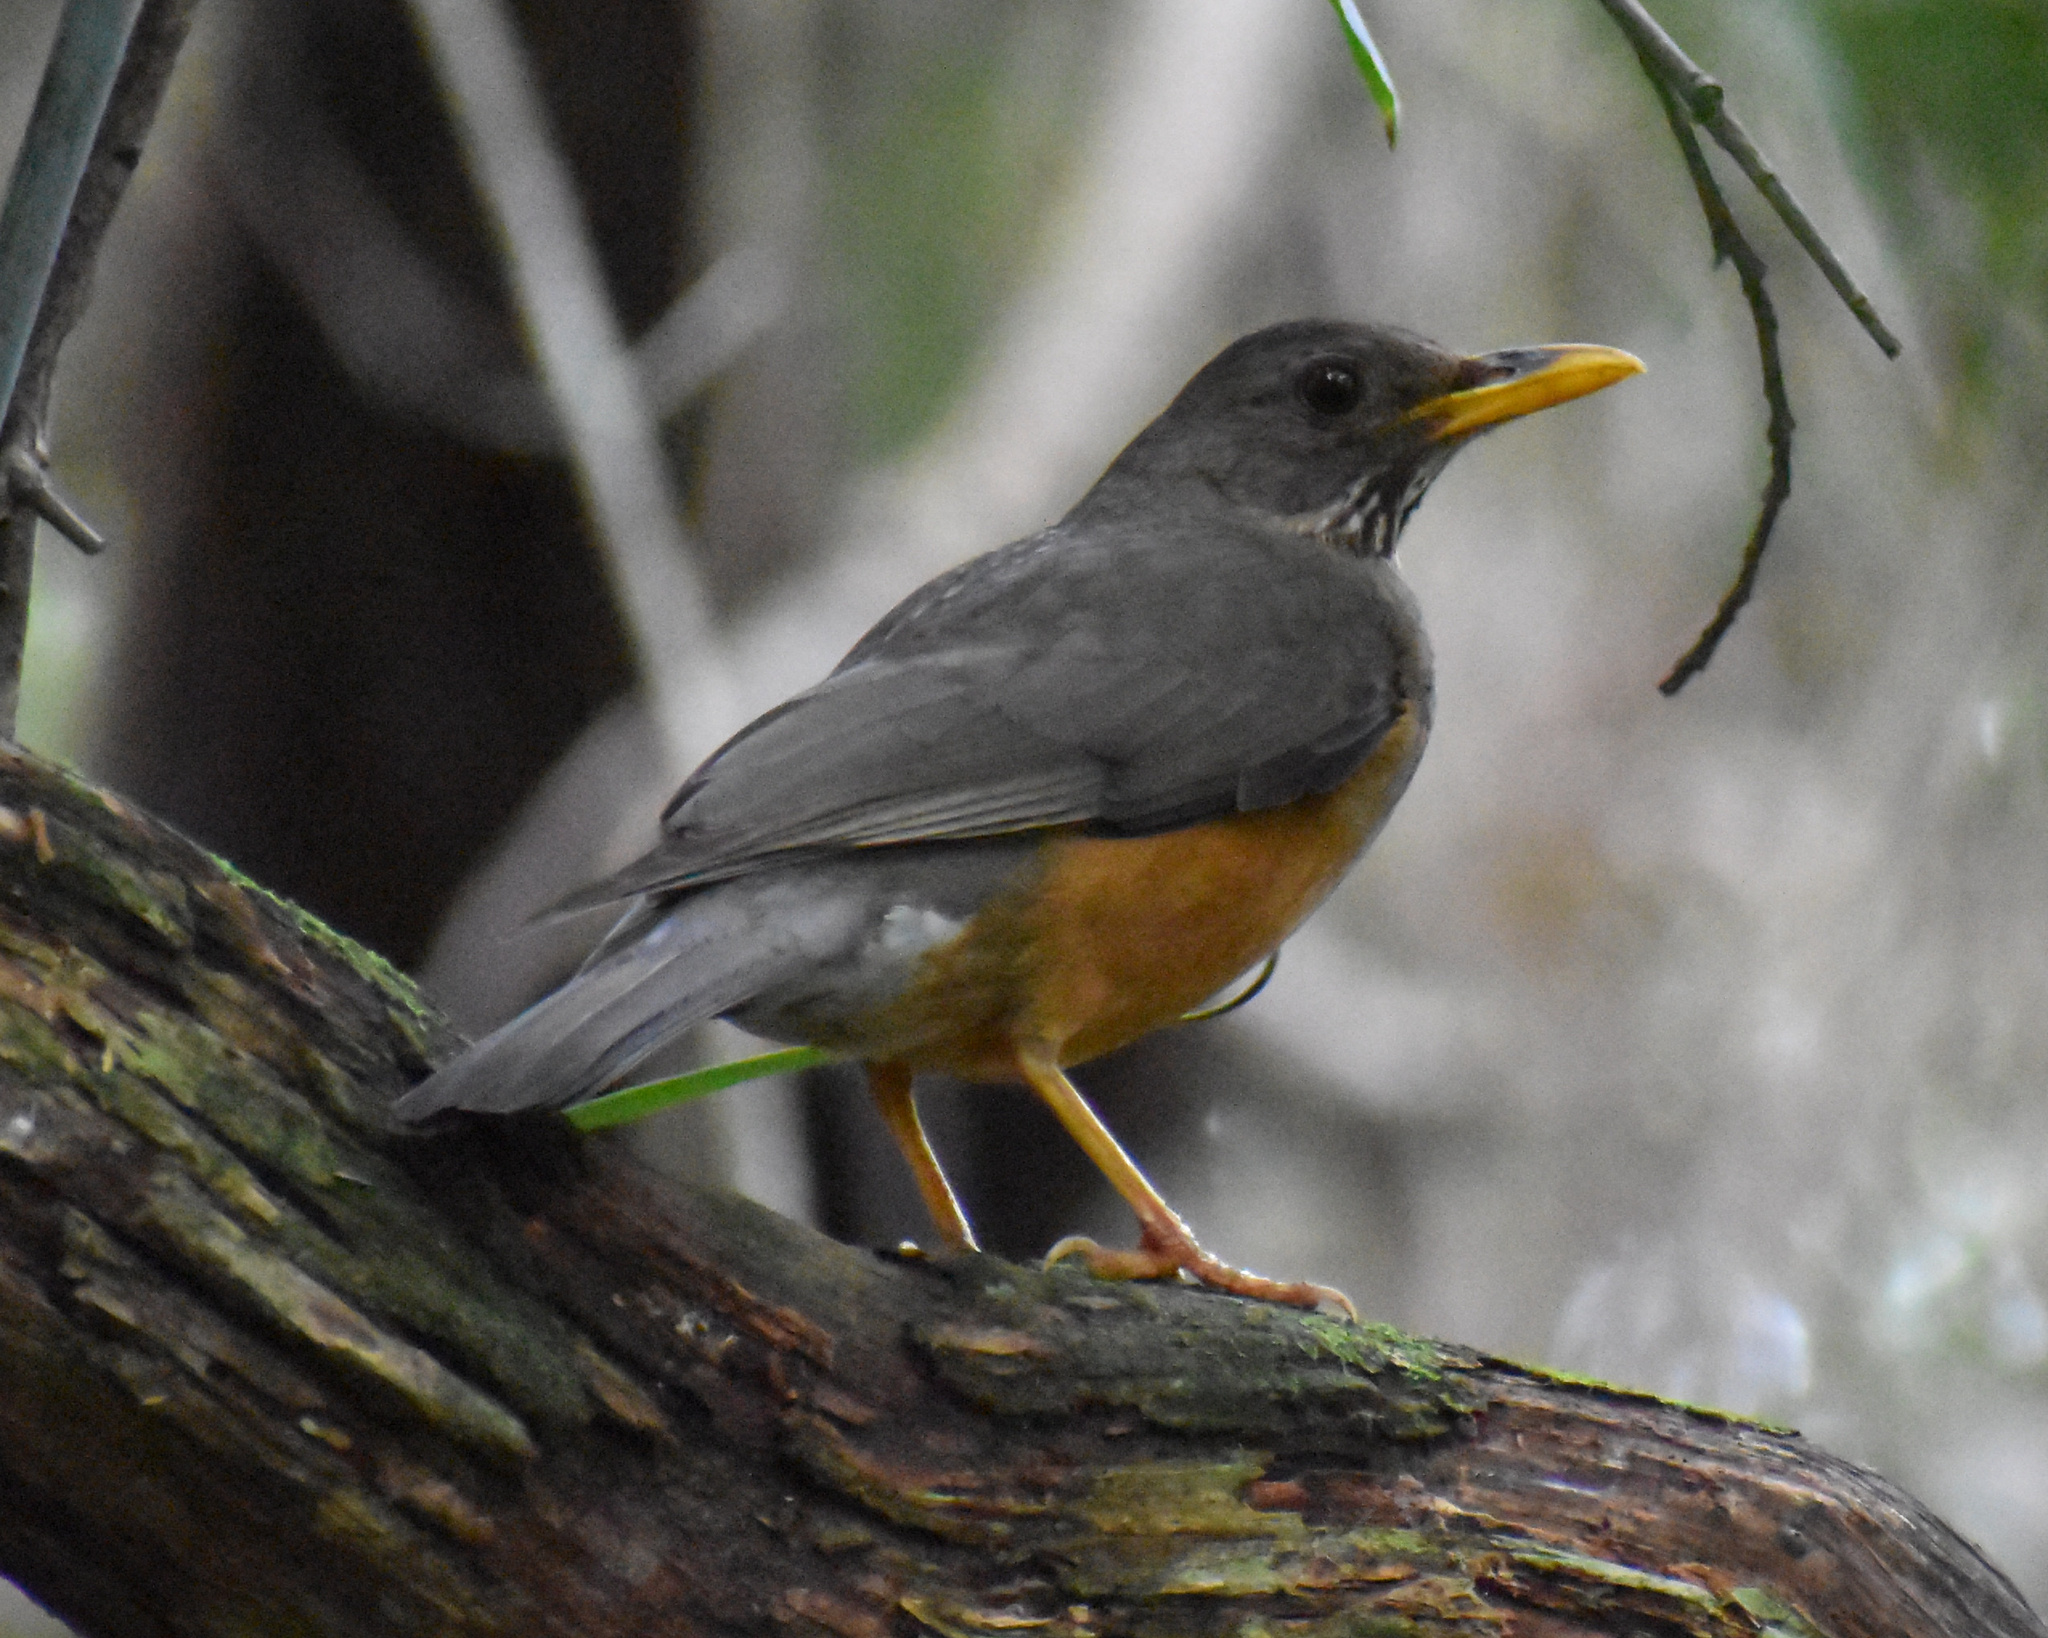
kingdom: Animalia
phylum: Chordata
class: Aves
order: Passeriformes
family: Turdidae
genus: Turdus
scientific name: Turdus olivaceus
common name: Olive thrush
